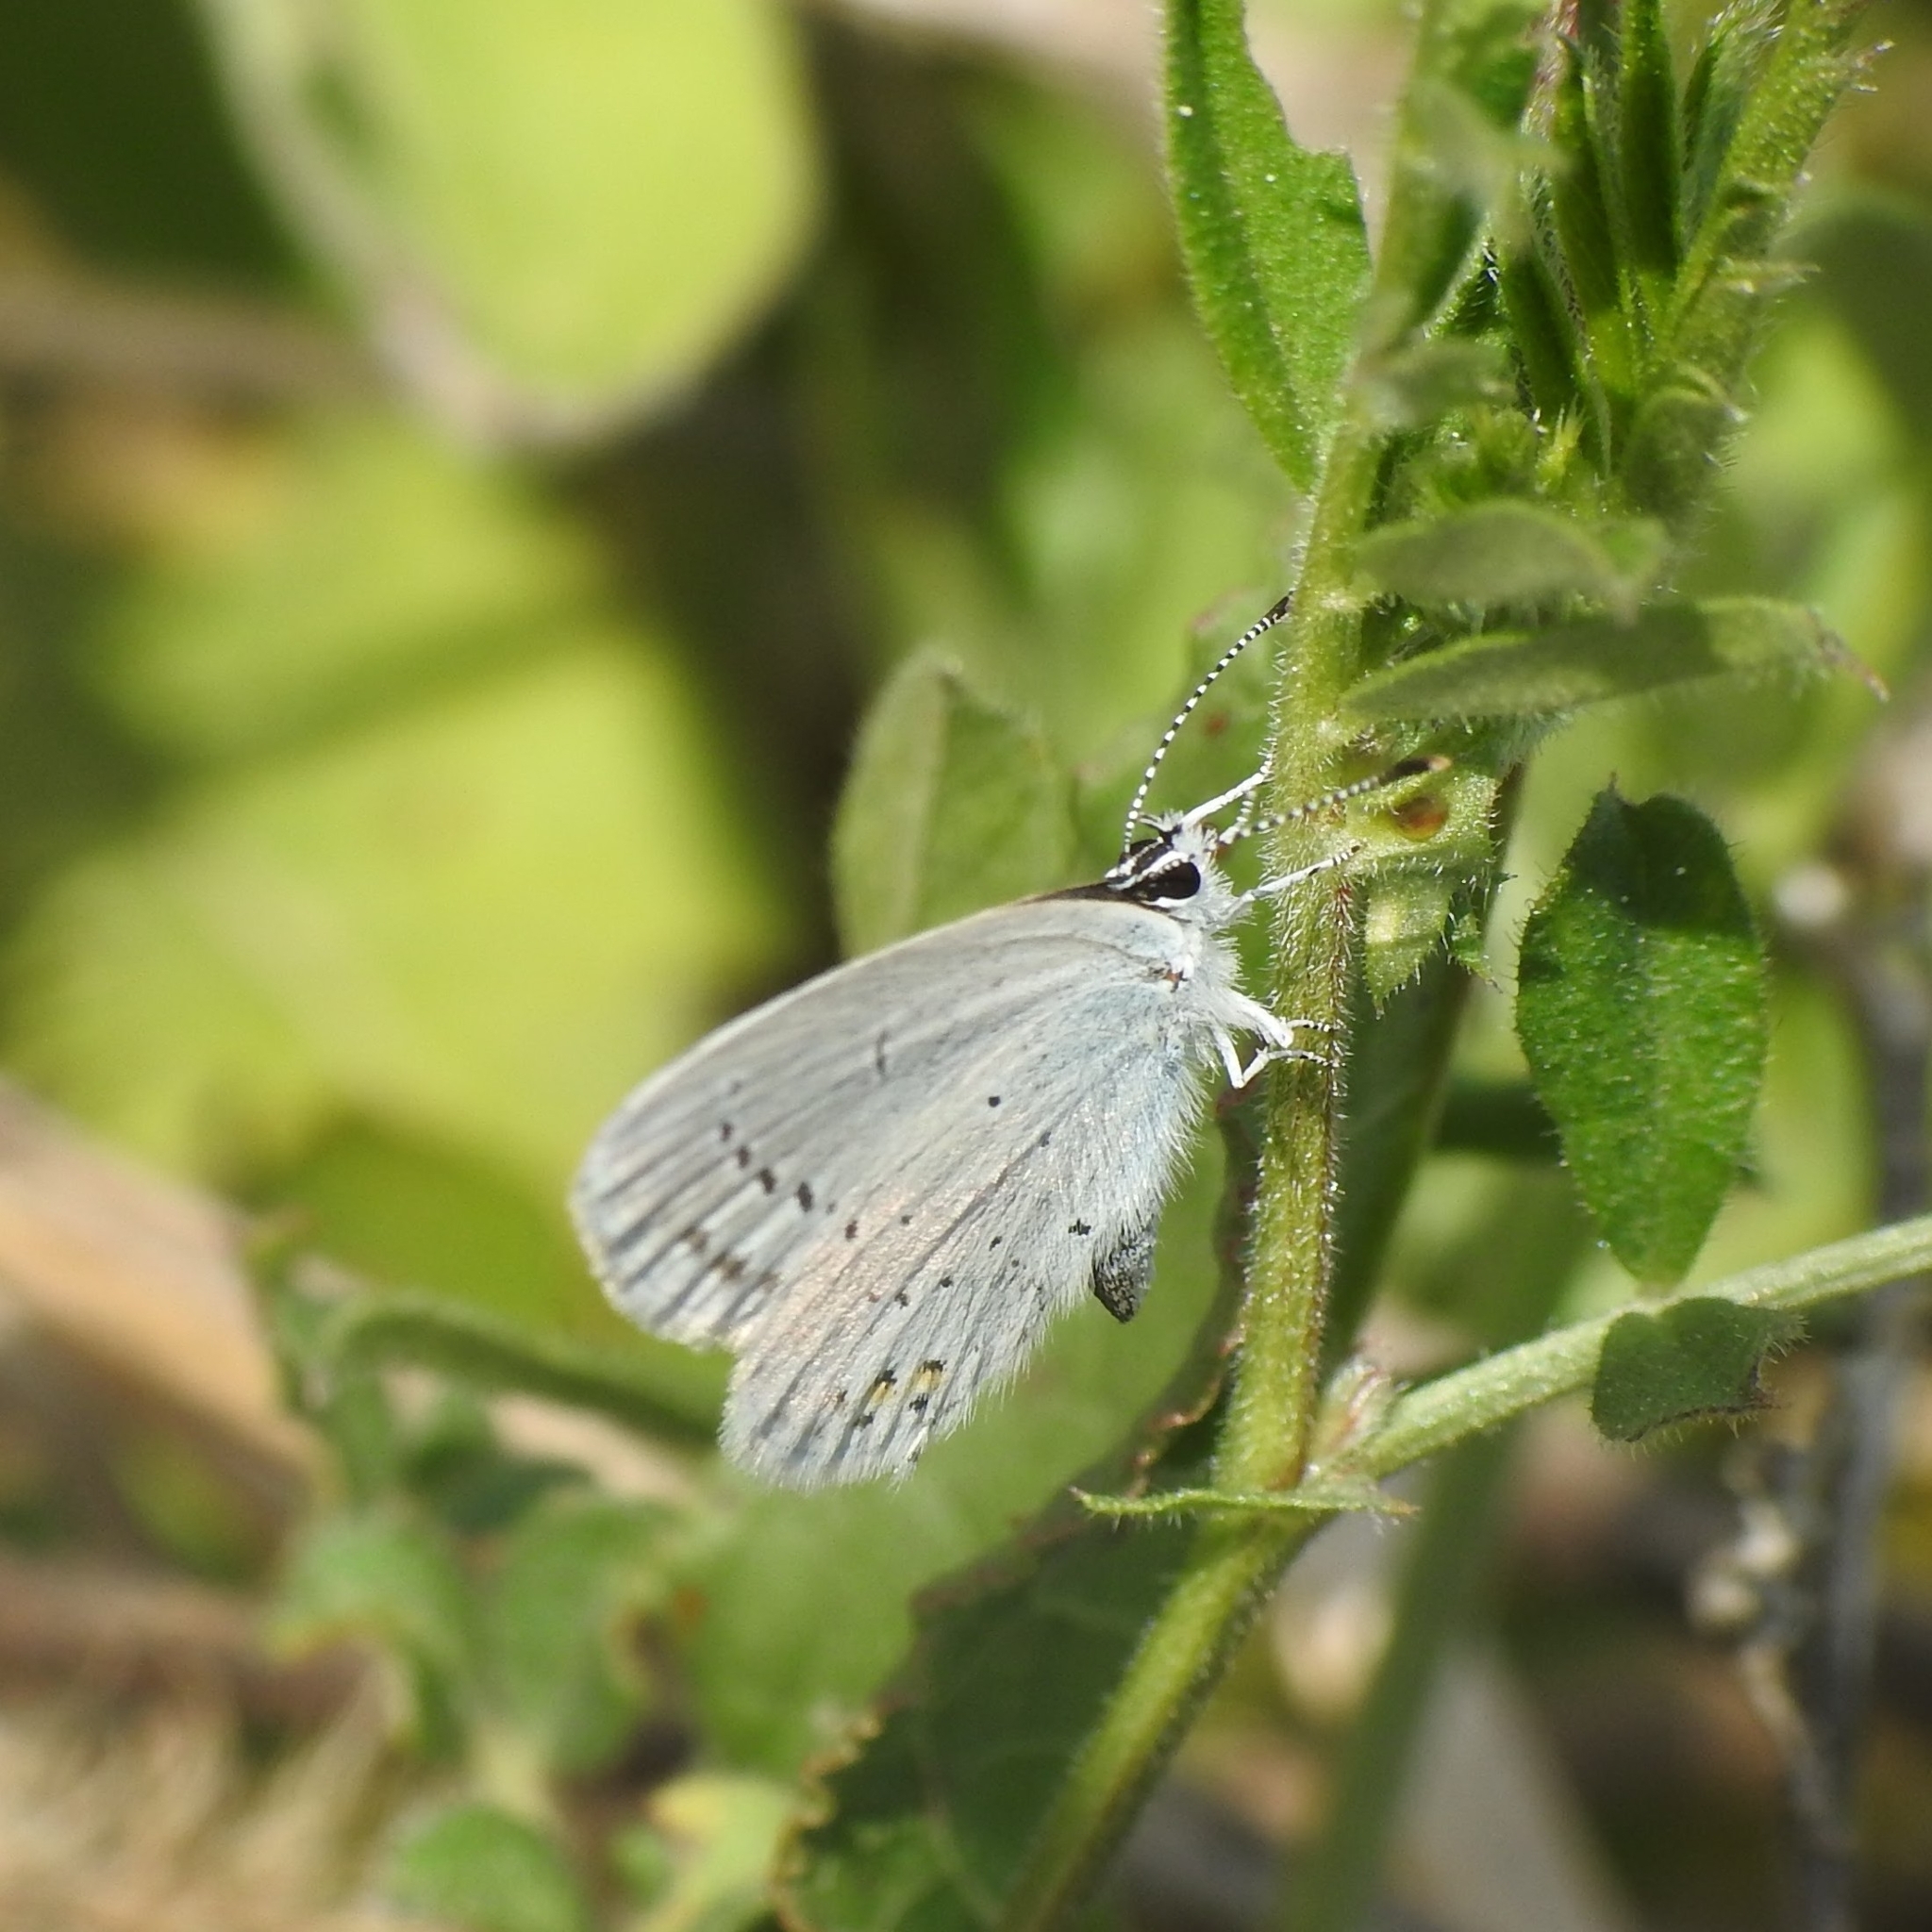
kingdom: Animalia
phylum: Arthropoda
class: Insecta
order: Lepidoptera
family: Lycaenidae
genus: Elkalyce
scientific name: Elkalyce argiades
